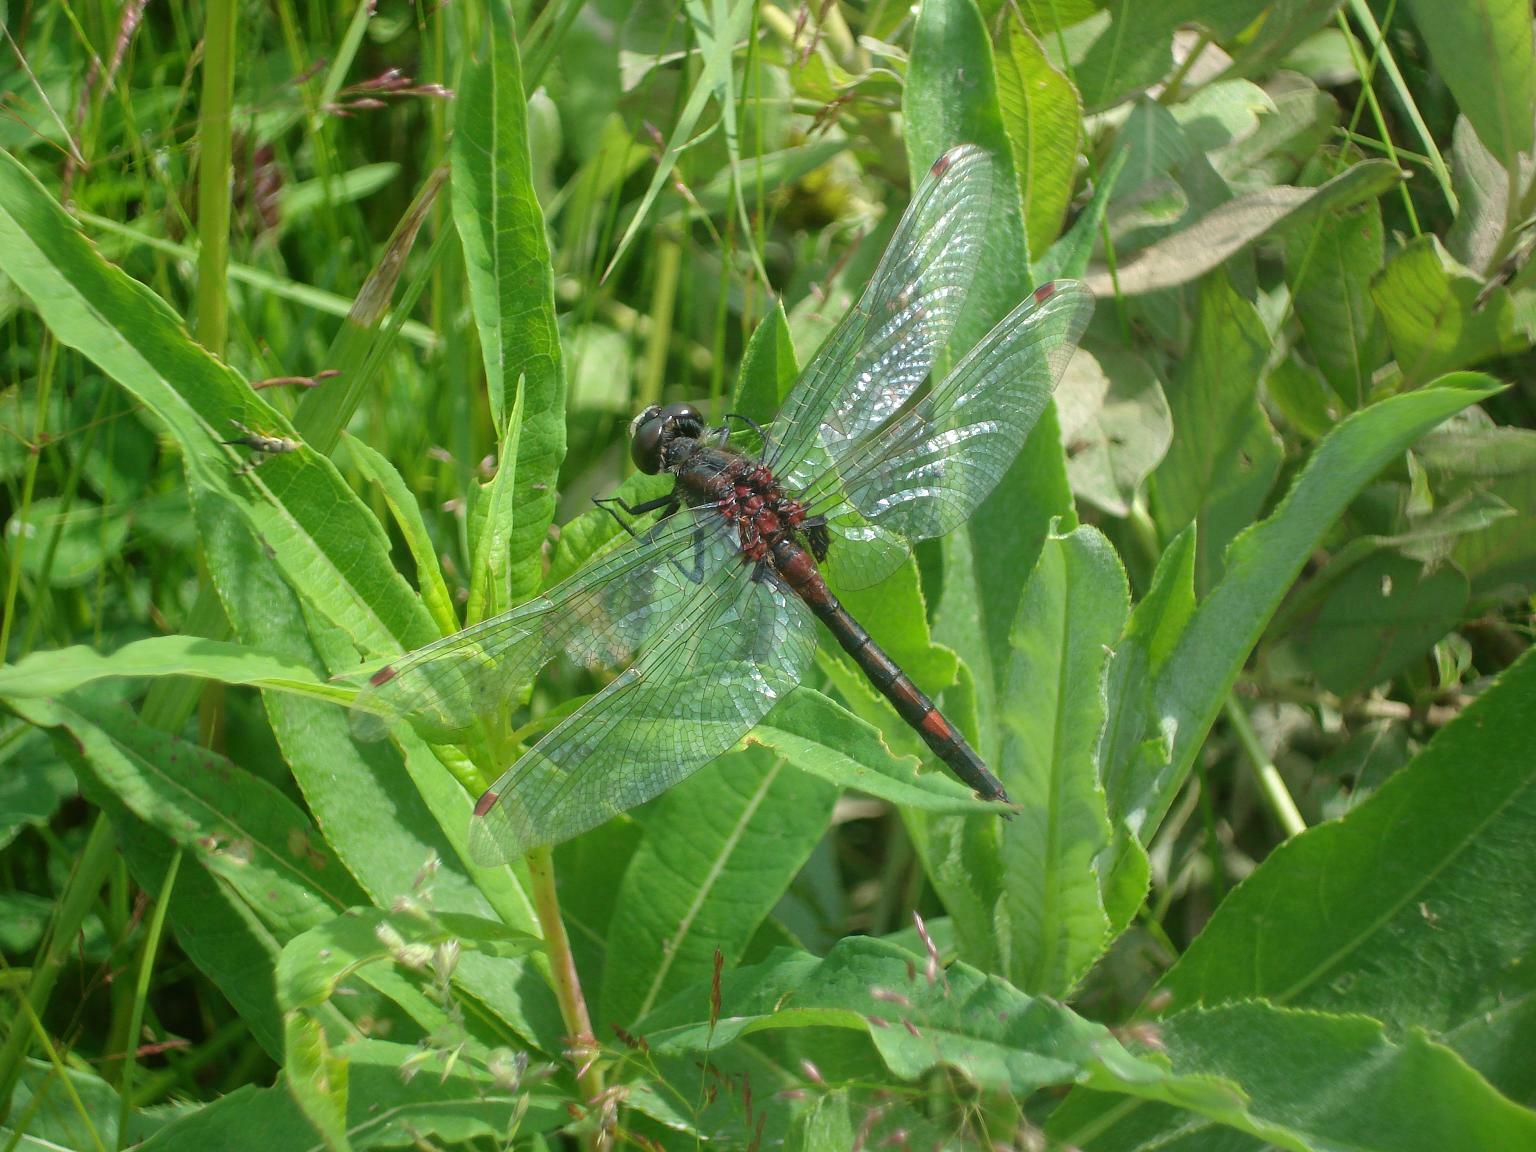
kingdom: Animalia
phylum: Arthropoda
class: Insecta
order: Odonata
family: Libellulidae
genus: Leucorrhinia
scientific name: Leucorrhinia rubicunda
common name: Ruby whiteface
